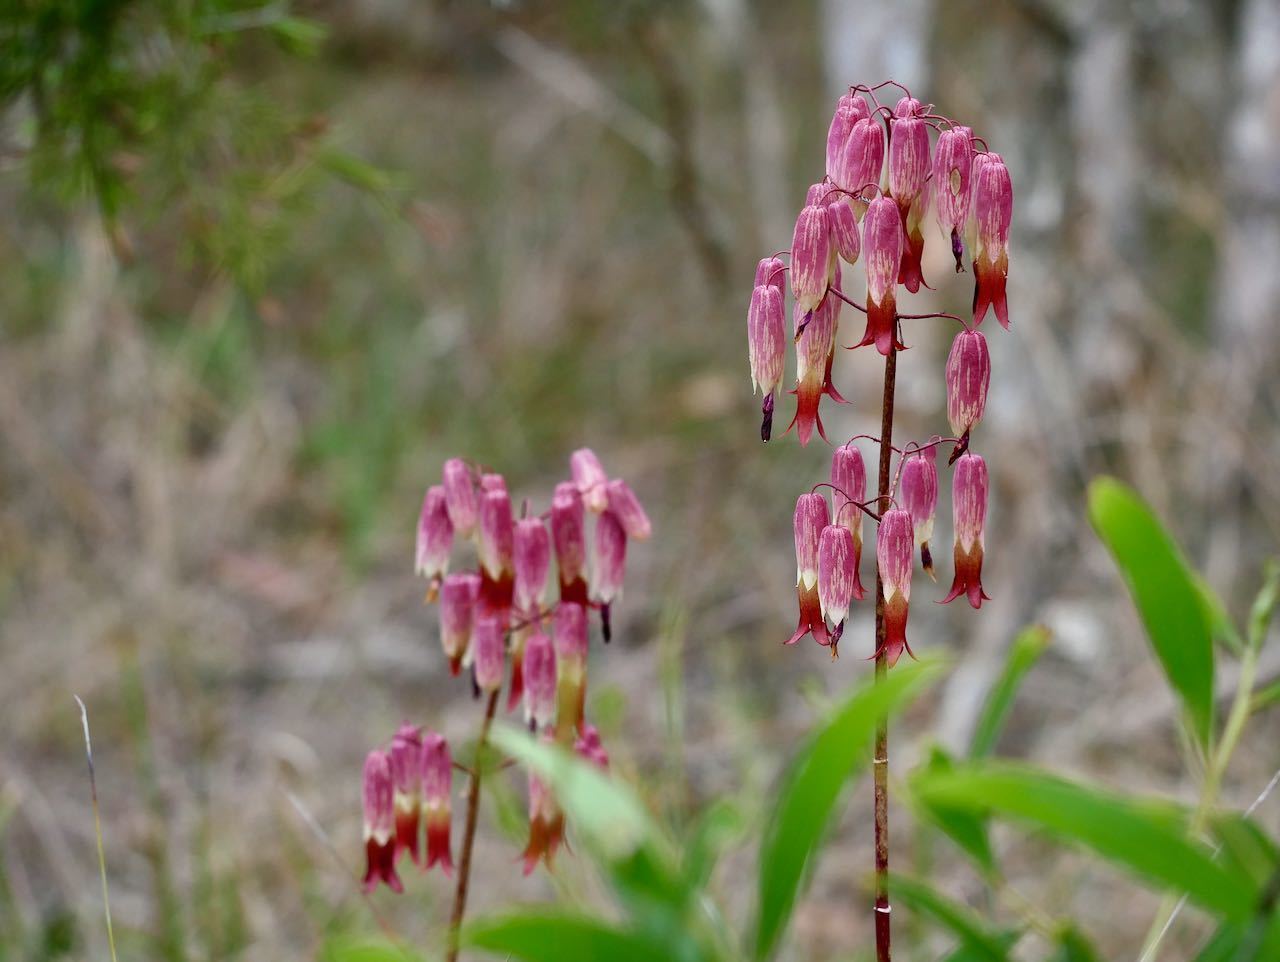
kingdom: Plantae
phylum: Tracheophyta
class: Magnoliopsida
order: Saxifragales
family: Crassulaceae
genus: Kalanchoe
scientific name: Kalanchoe pinnata
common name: Cathedral bells
